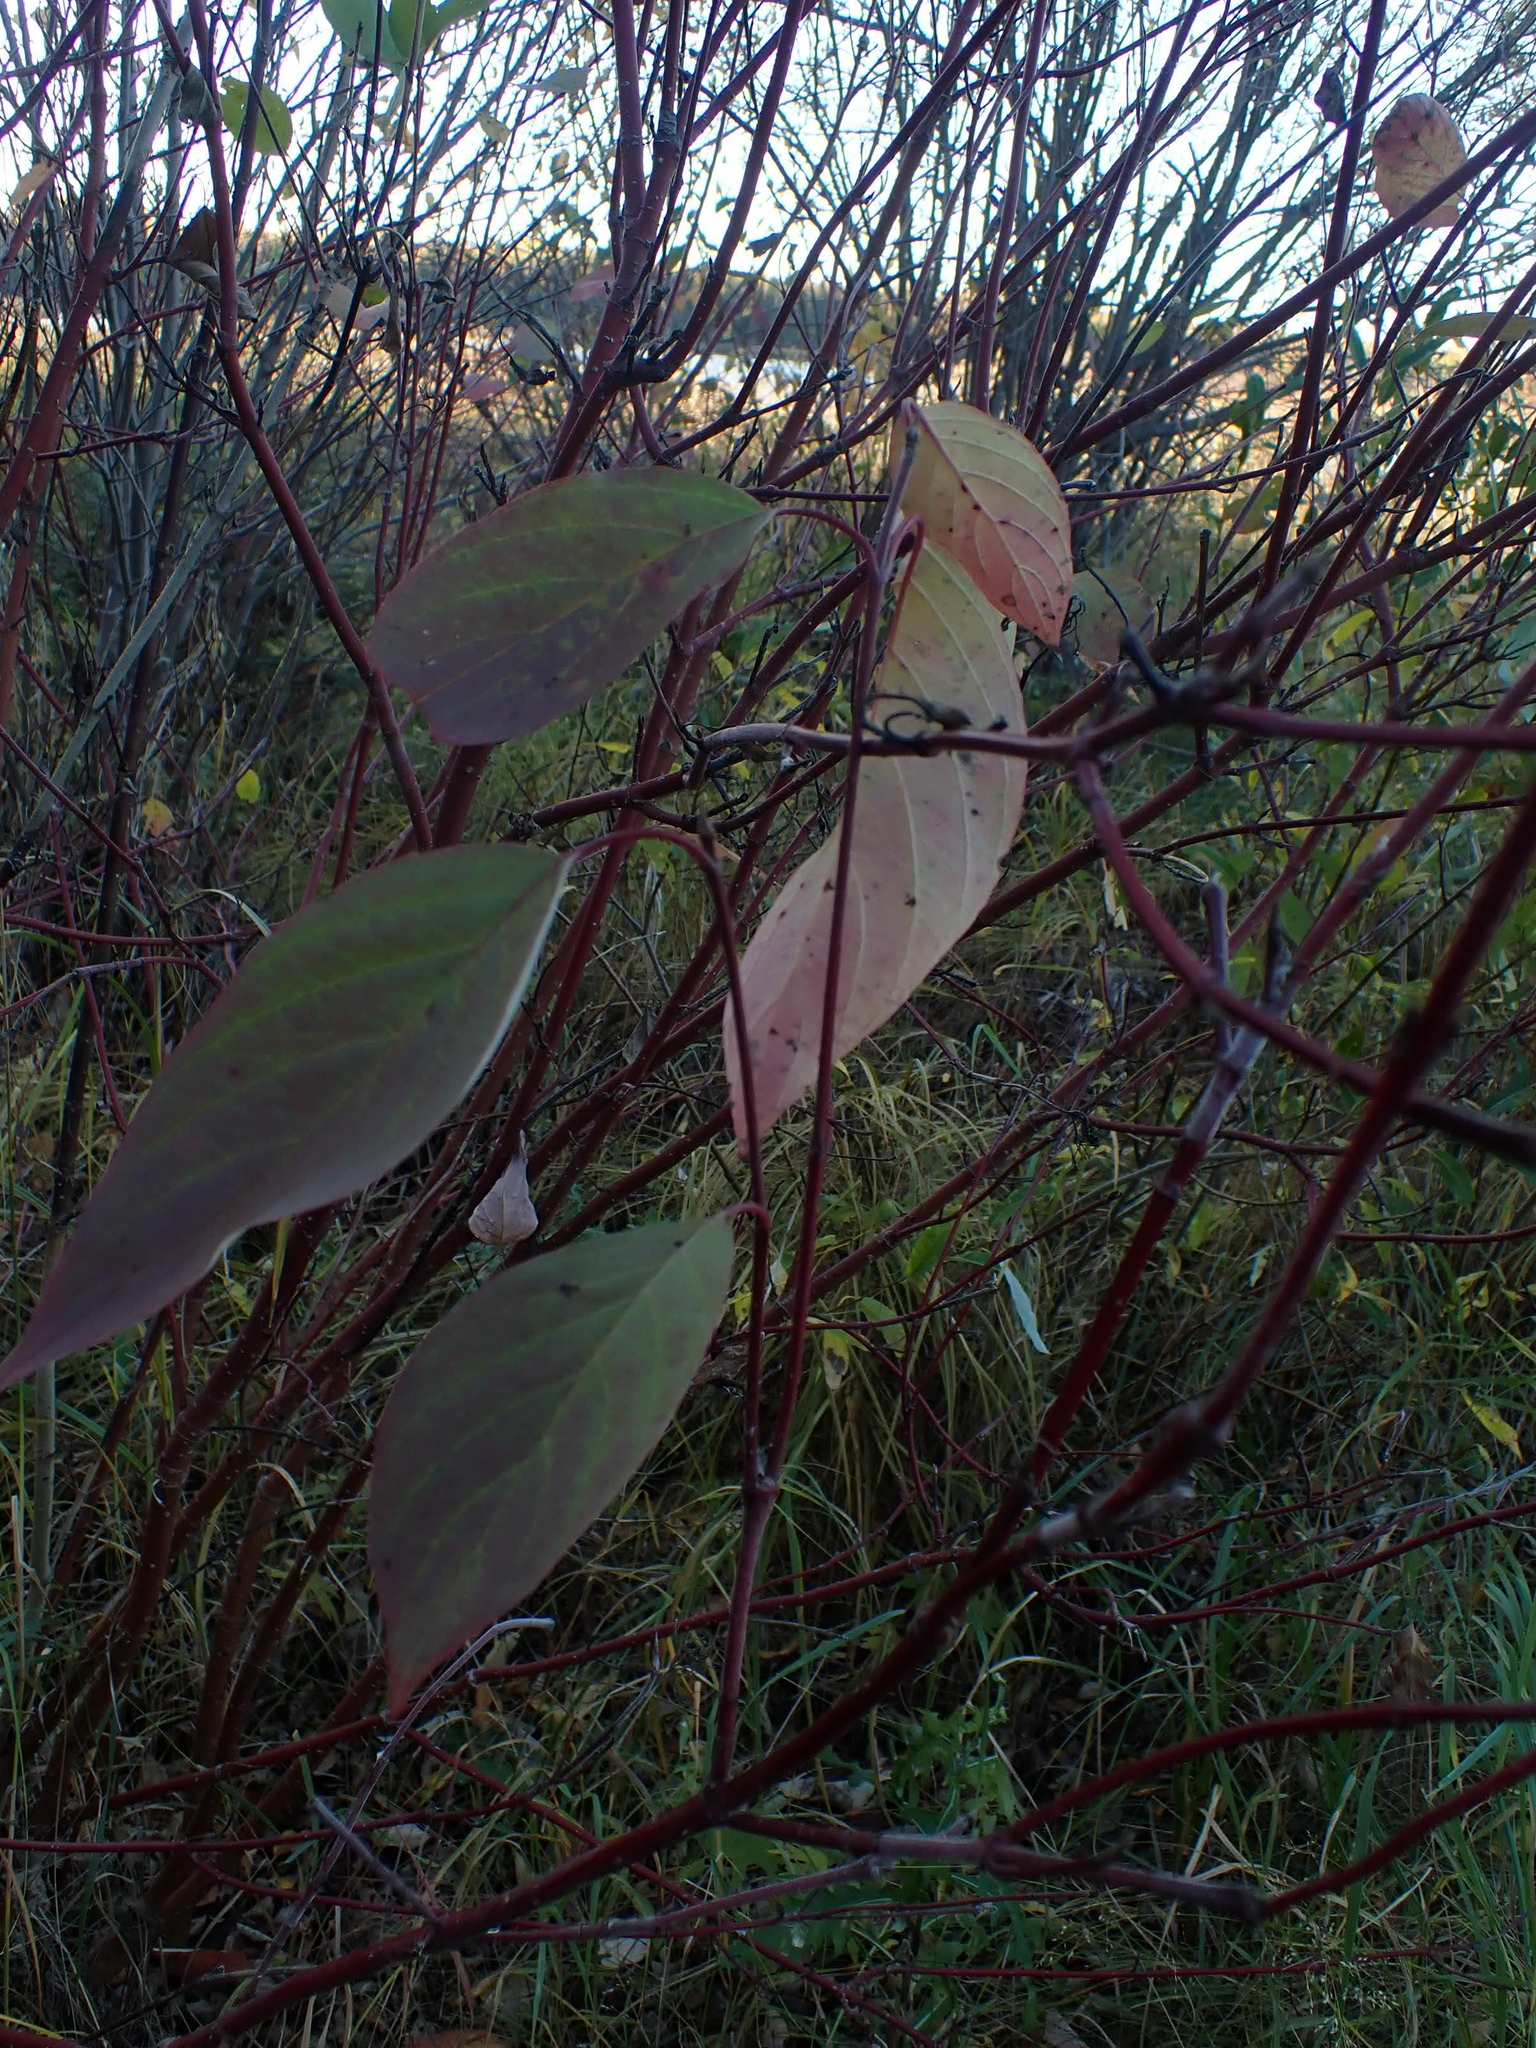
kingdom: Plantae
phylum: Tracheophyta
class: Magnoliopsida
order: Cornales
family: Cornaceae
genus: Cornus
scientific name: Cornus sericea
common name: Red-osier dogwood
